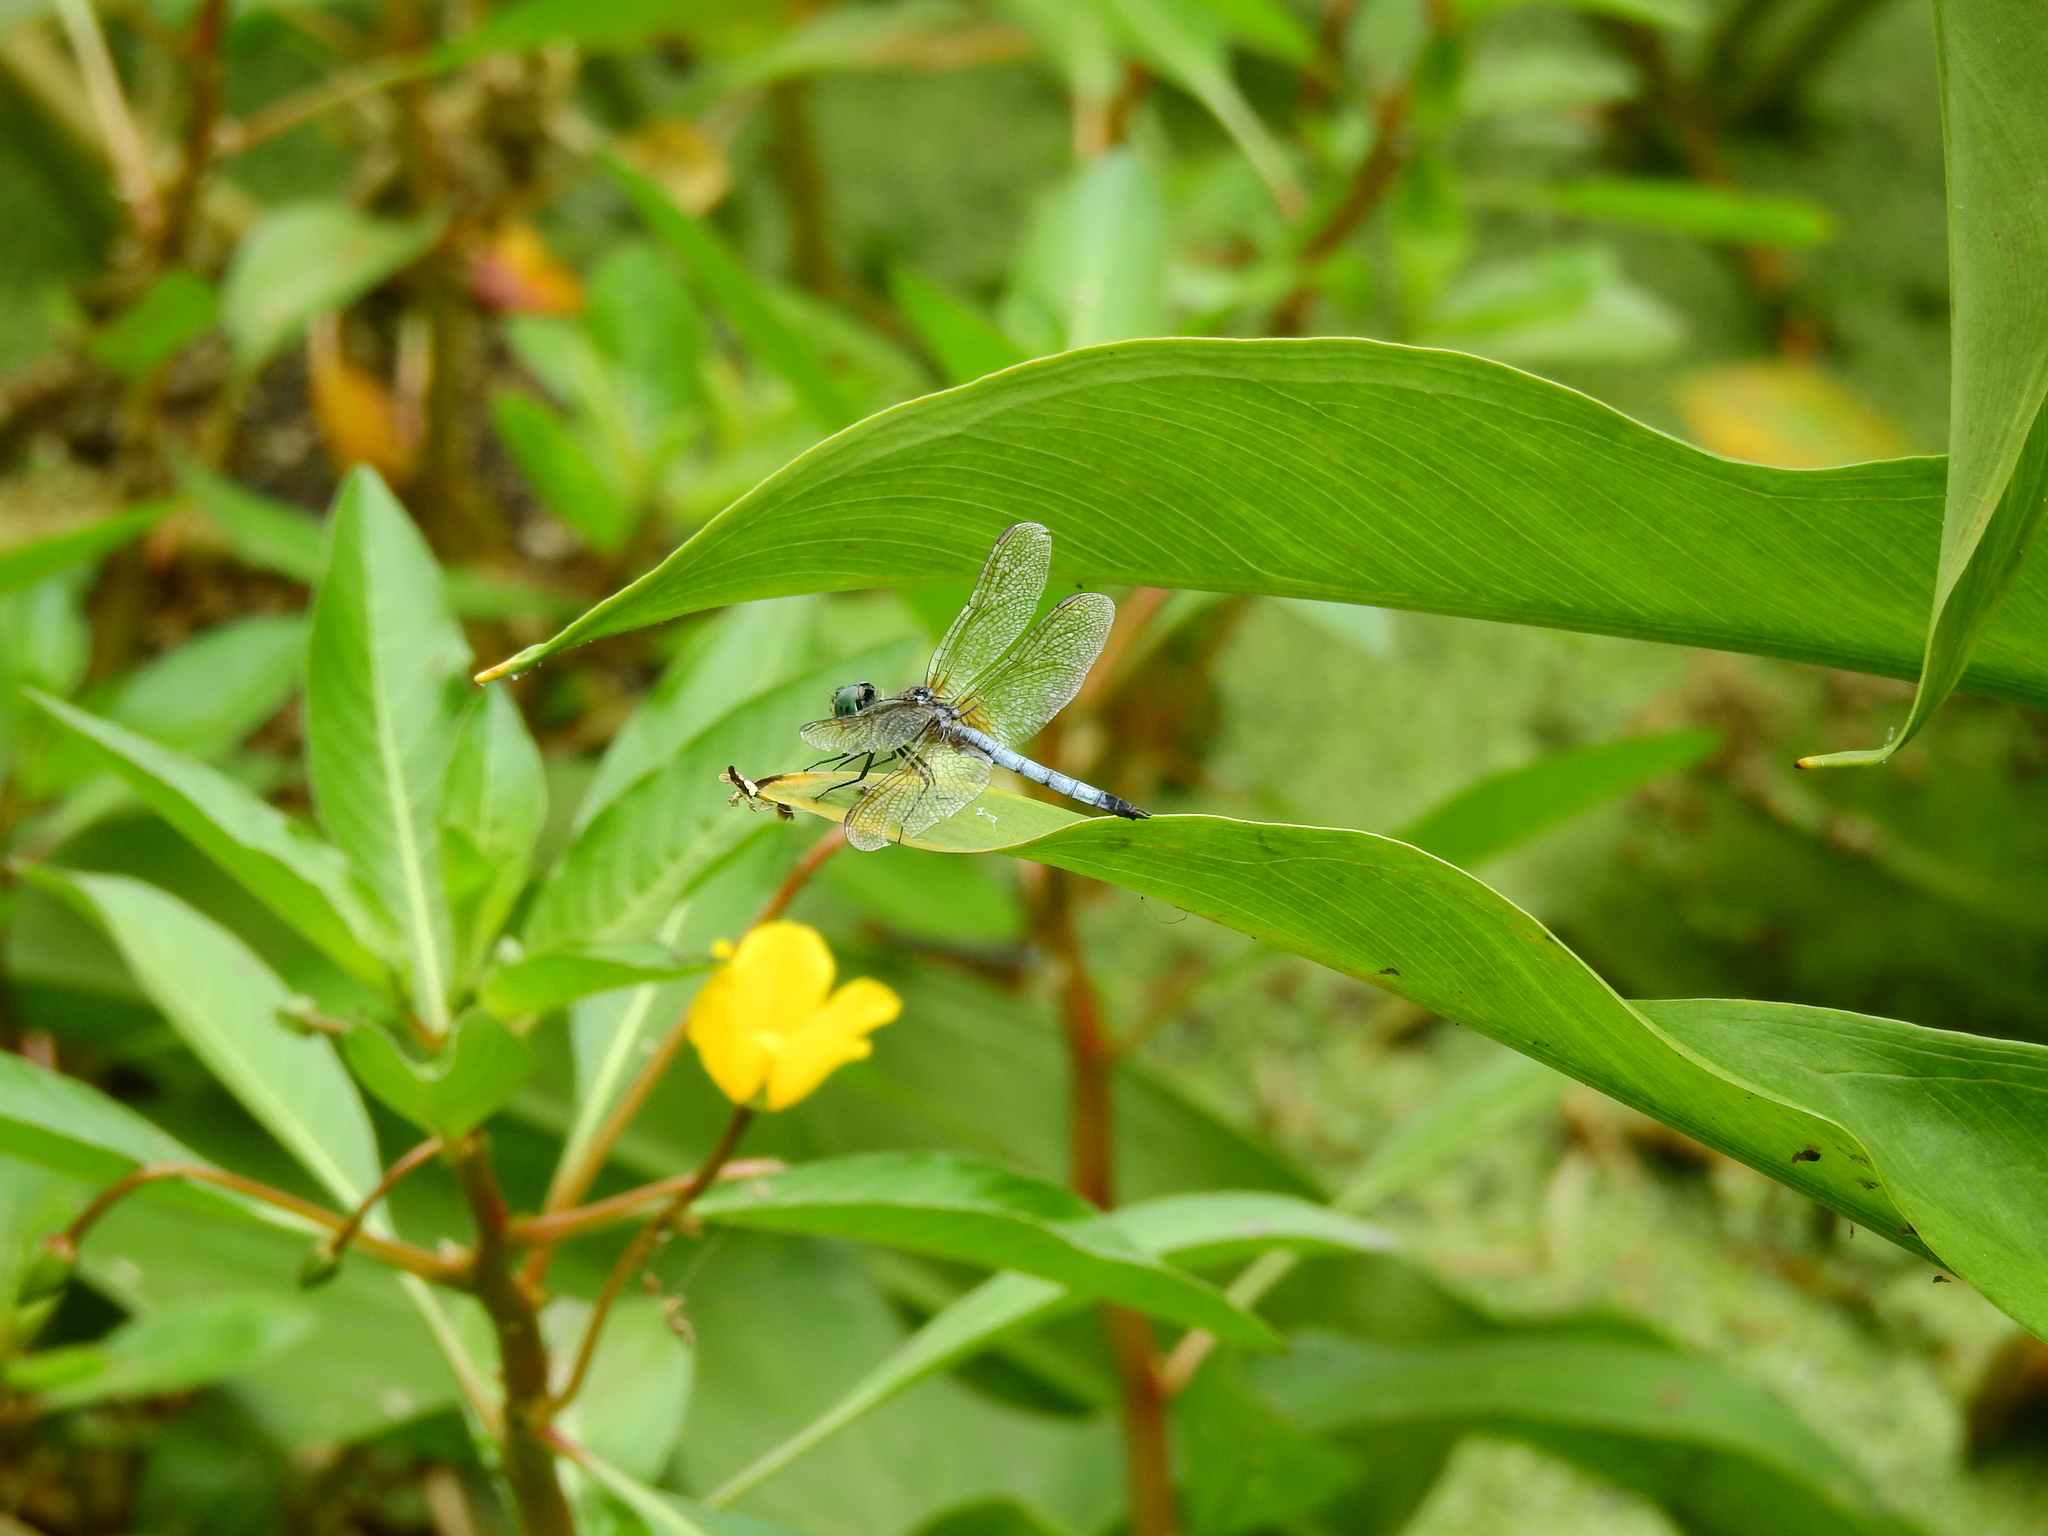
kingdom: Animalia
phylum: Arthropoda
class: Insecta
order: Odonata
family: Libellulidae
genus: Pachydiplax
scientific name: Pachydiplax longipennis
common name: Blue dasher
